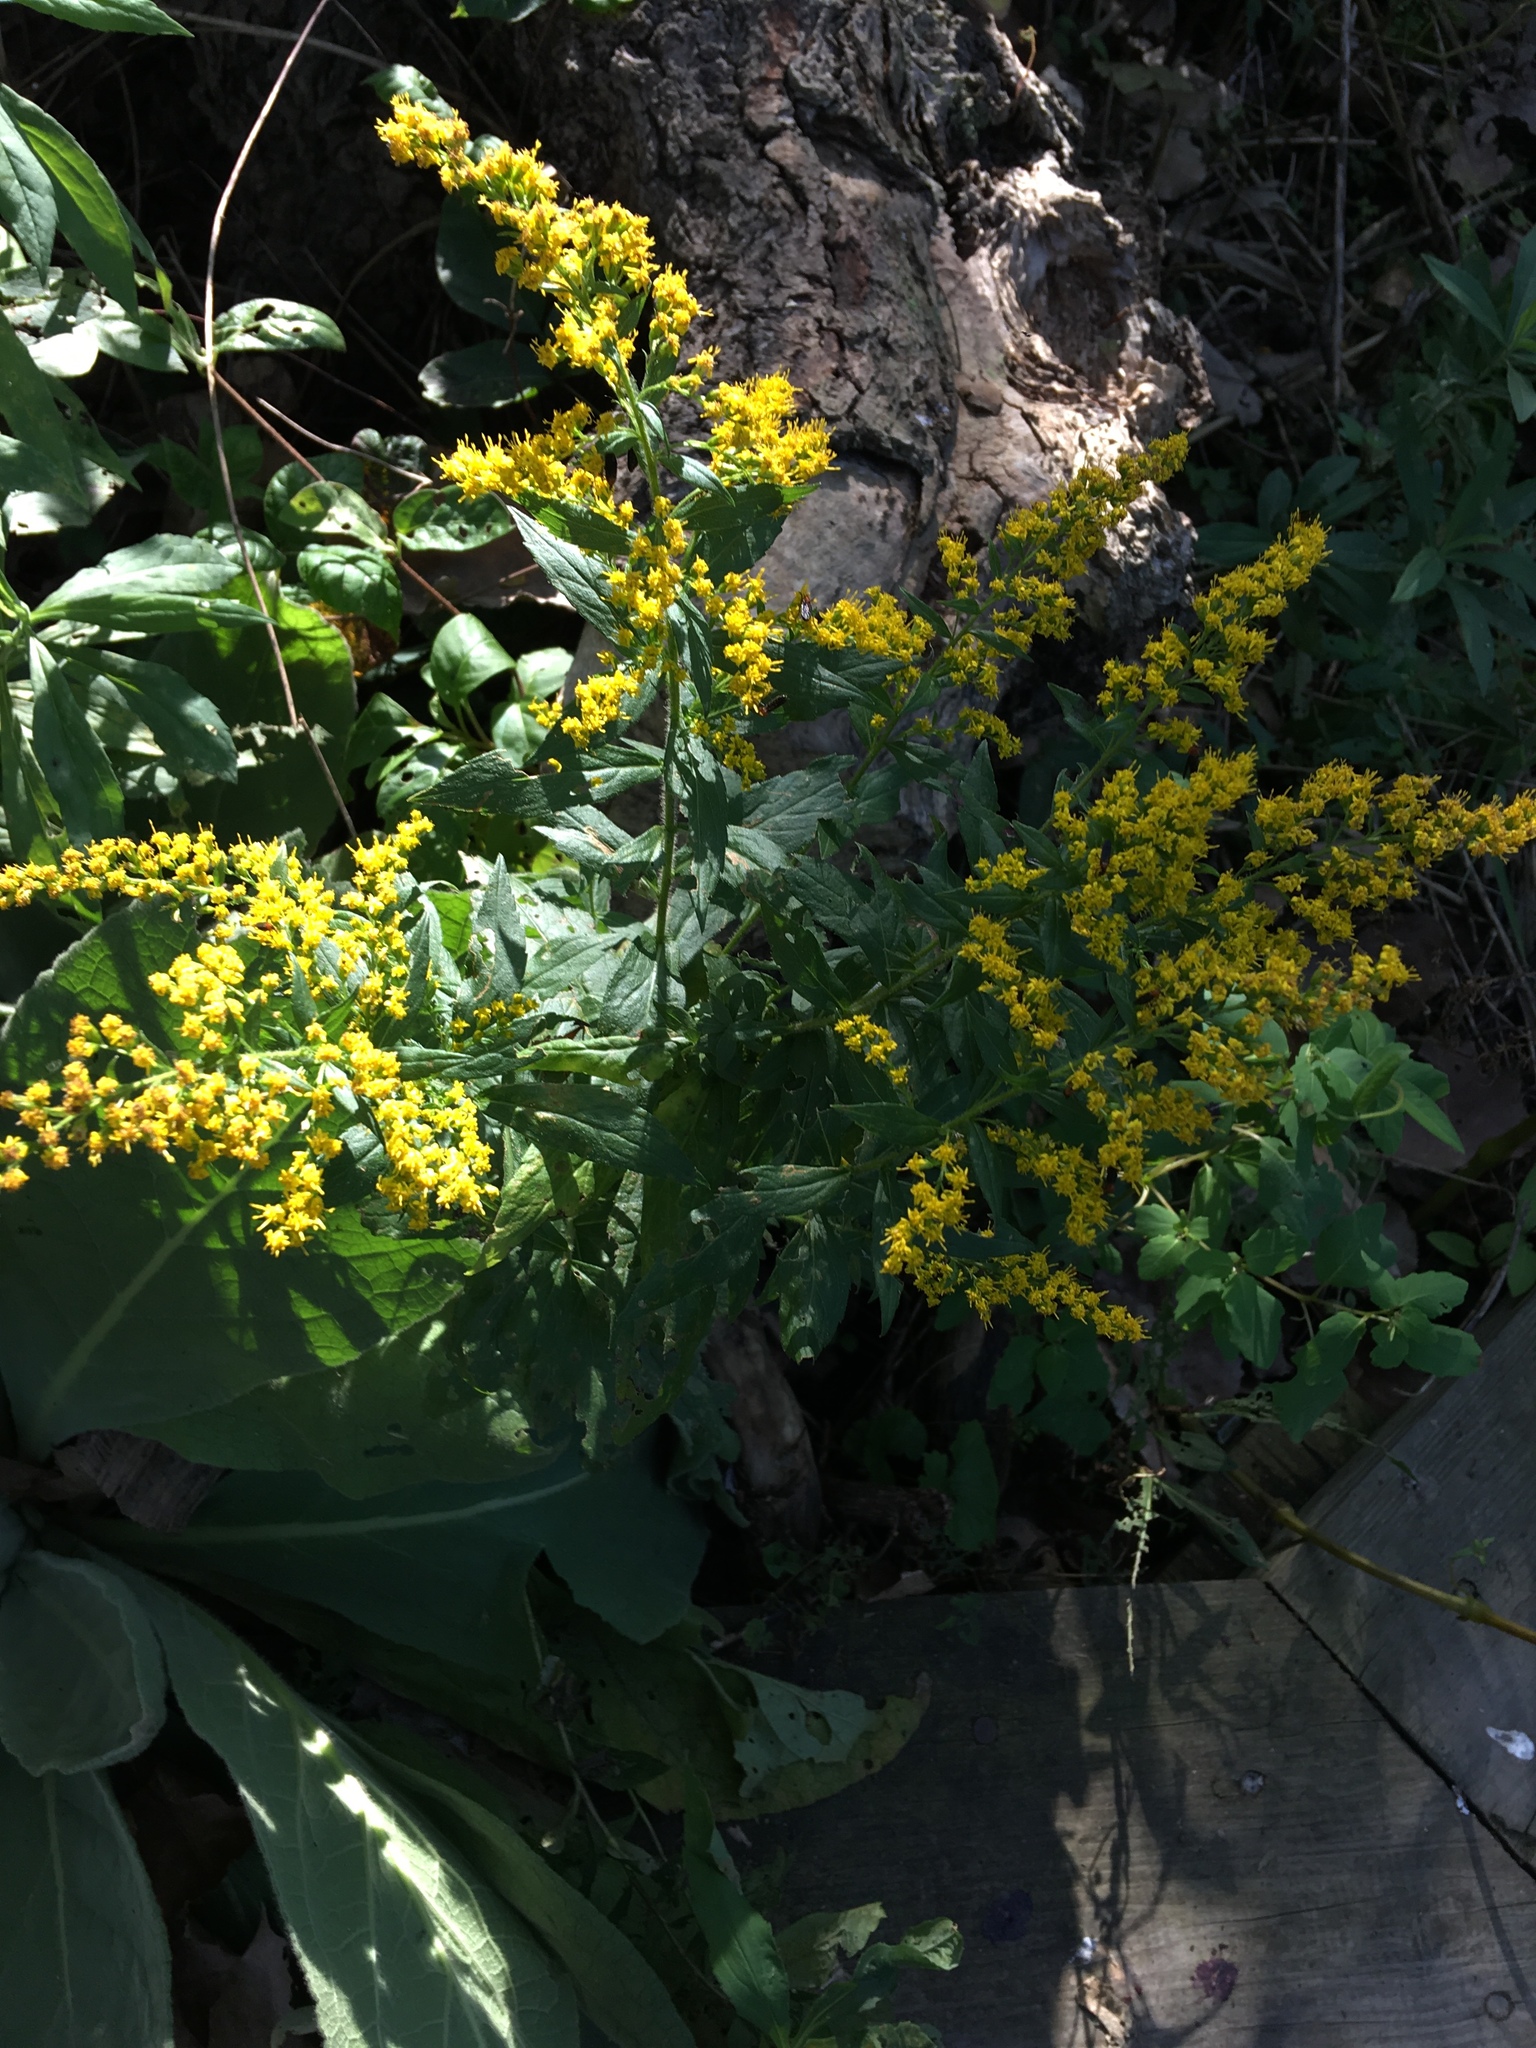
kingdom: Plantae
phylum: Tracheophyta
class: Magnoliopsida
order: Asterales
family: Asteraceae
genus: Solidago
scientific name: Solidago rugosa
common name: Rough-stemmed goldenrod
